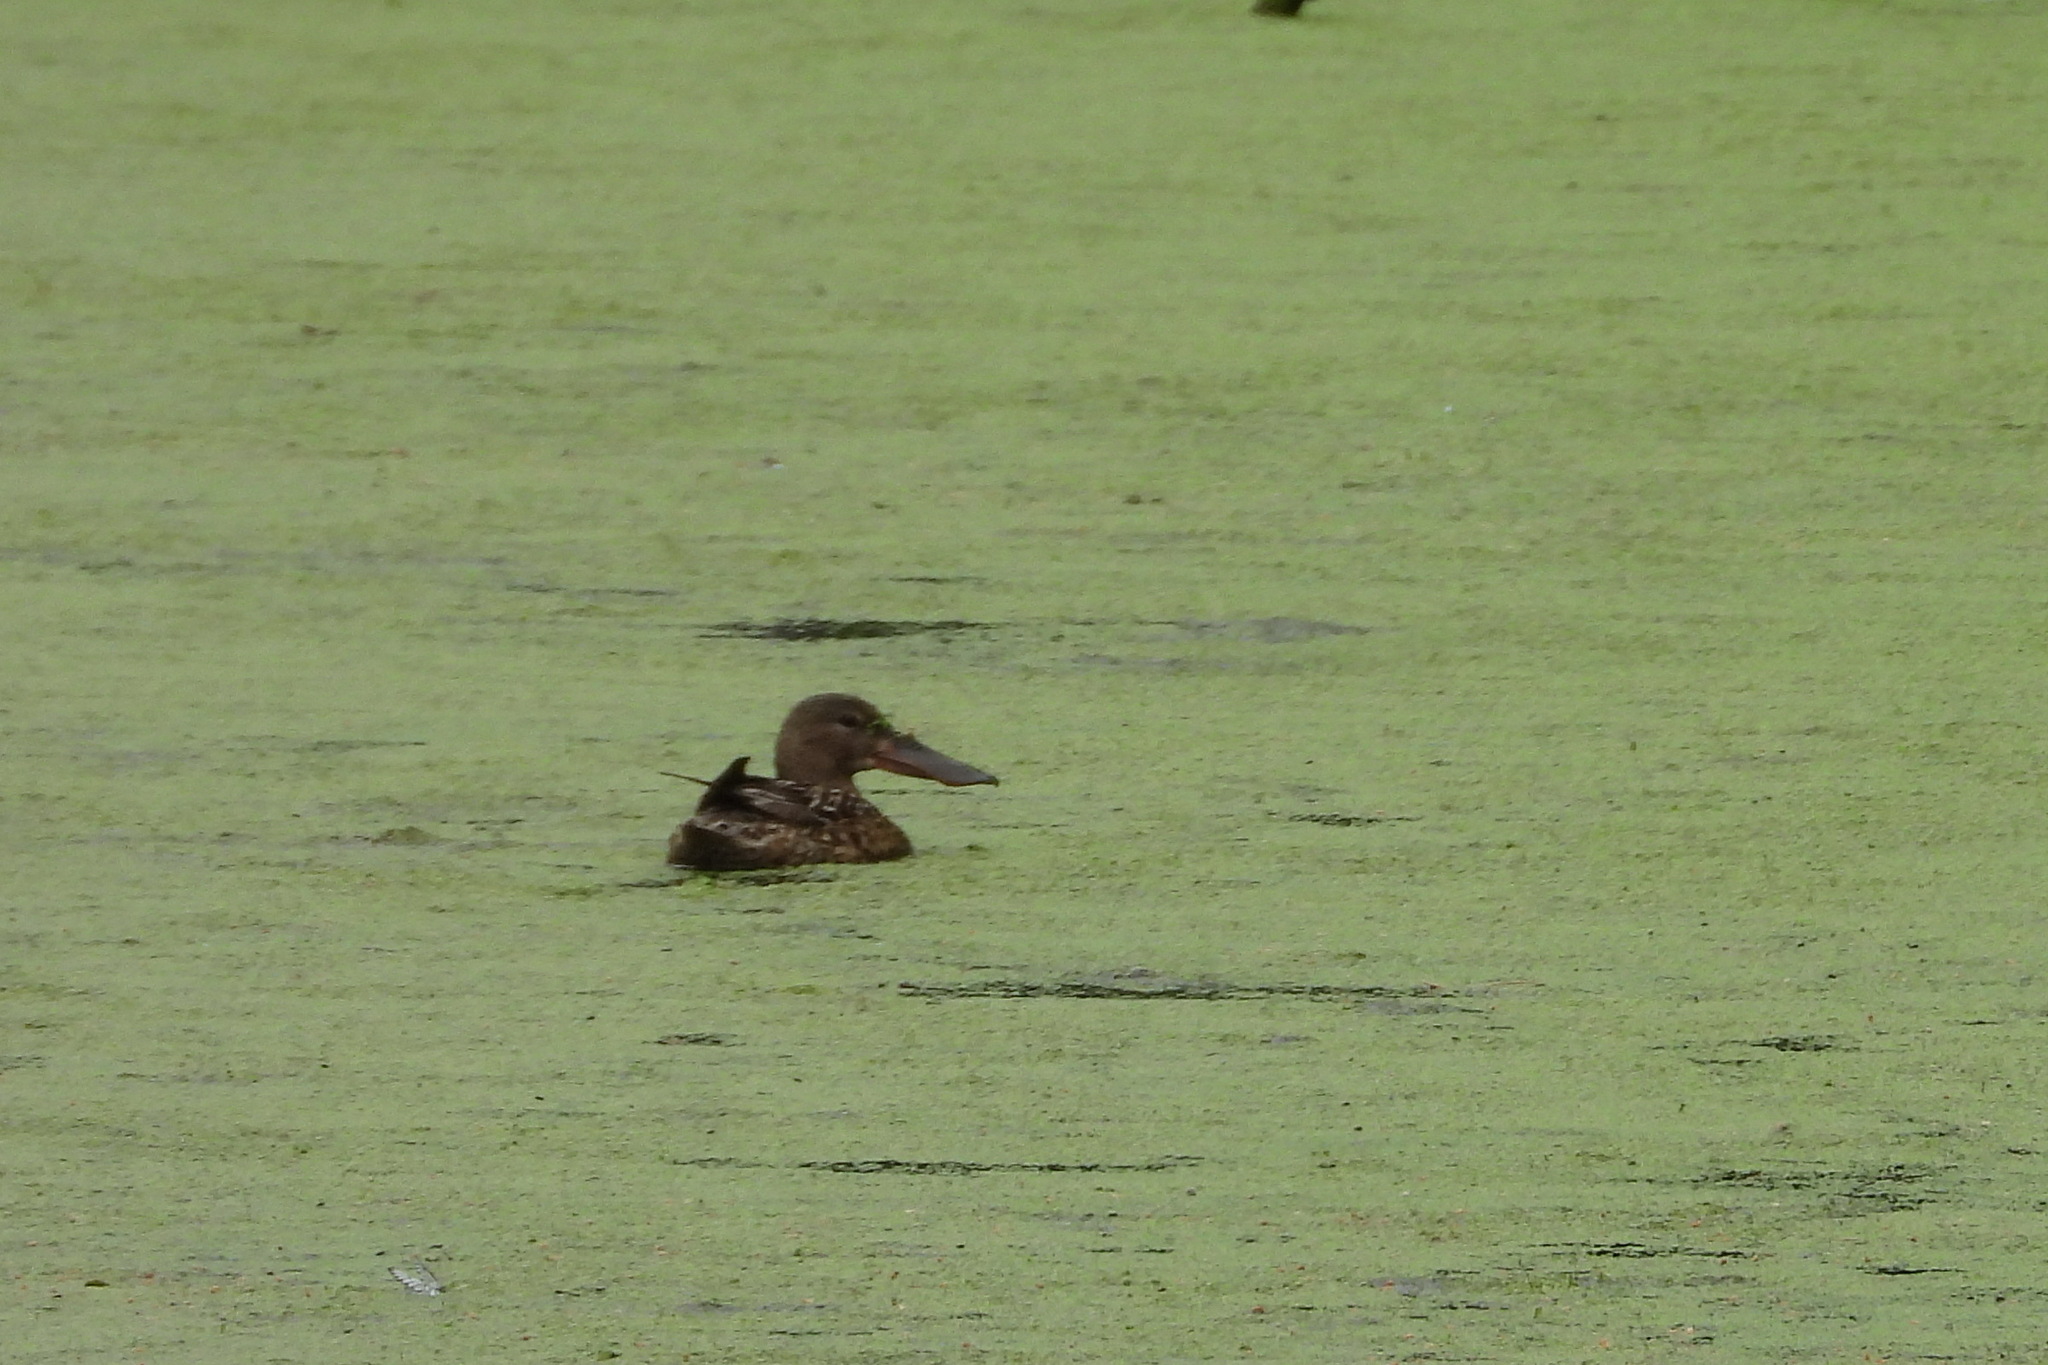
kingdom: Animalia
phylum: Chordata
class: Aves
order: Anseriformes
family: Anatidae
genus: Spatula
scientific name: Spatula clypeata
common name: Northern shoveler
